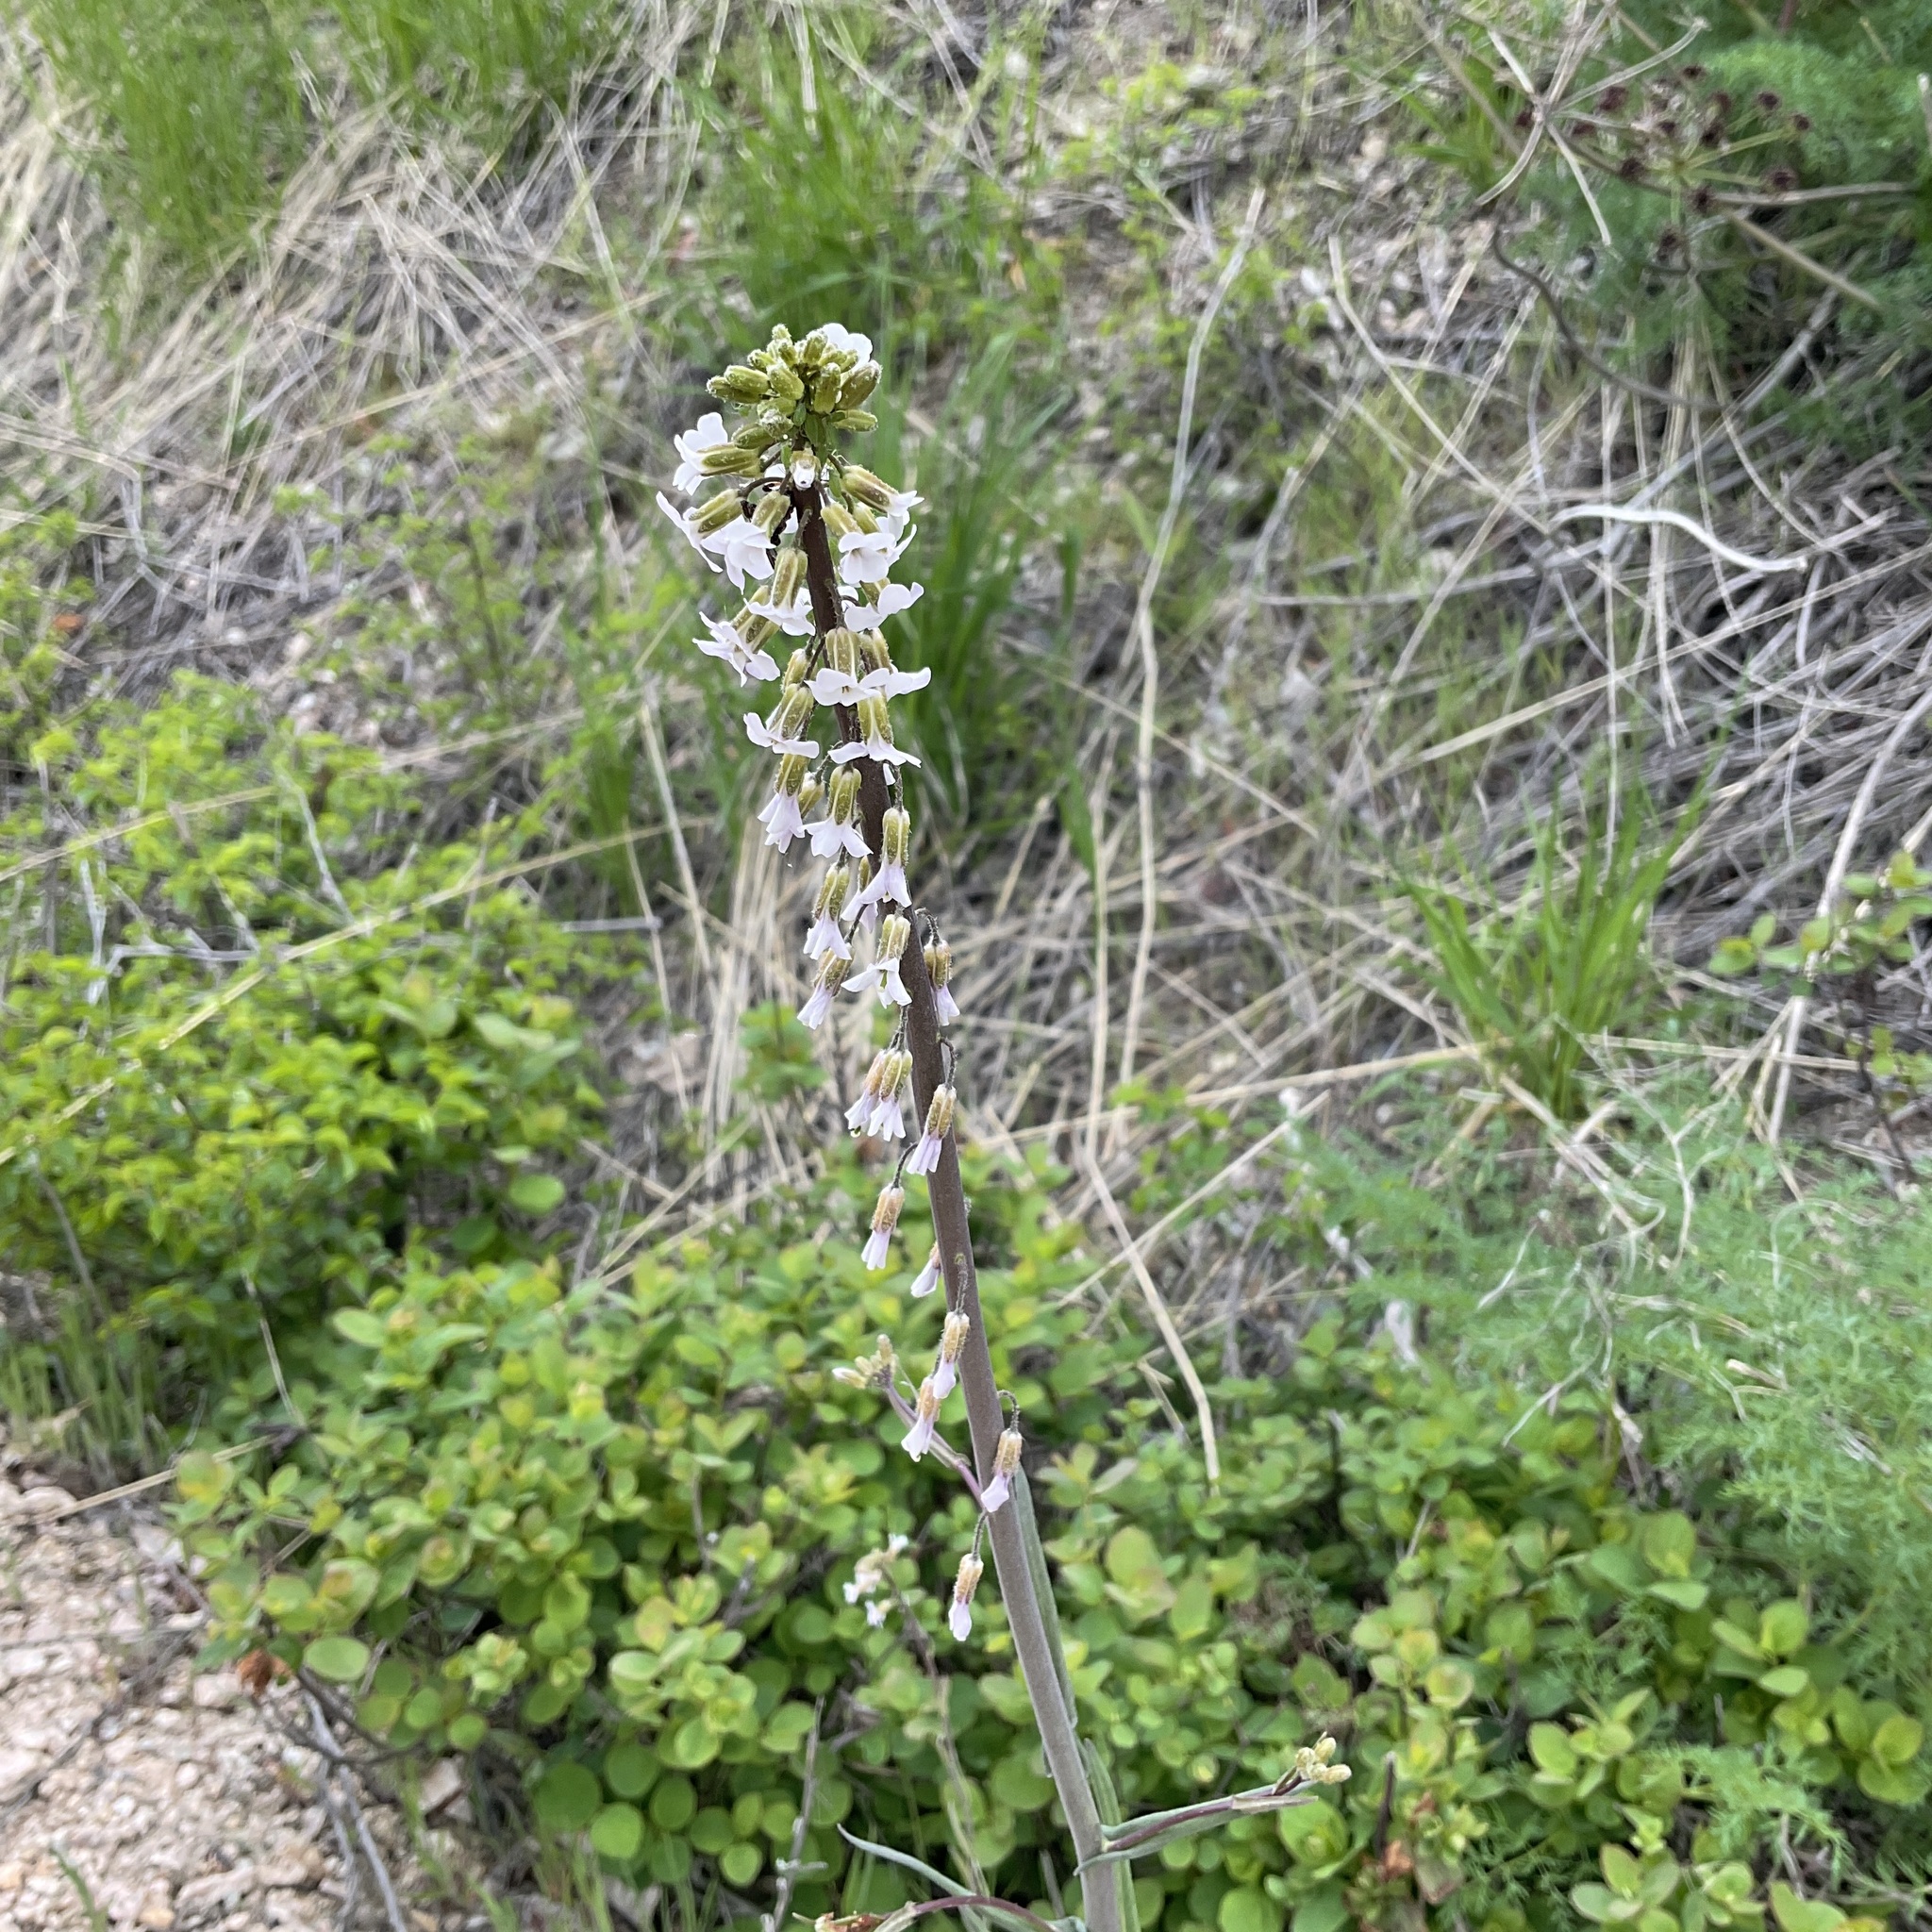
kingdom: Plantae
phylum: Tracheophyta
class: Magnoliopsida
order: Brassicales
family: Brassicaceae
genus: Boechera
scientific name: Boechera retrofracta
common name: Dangling suncress
